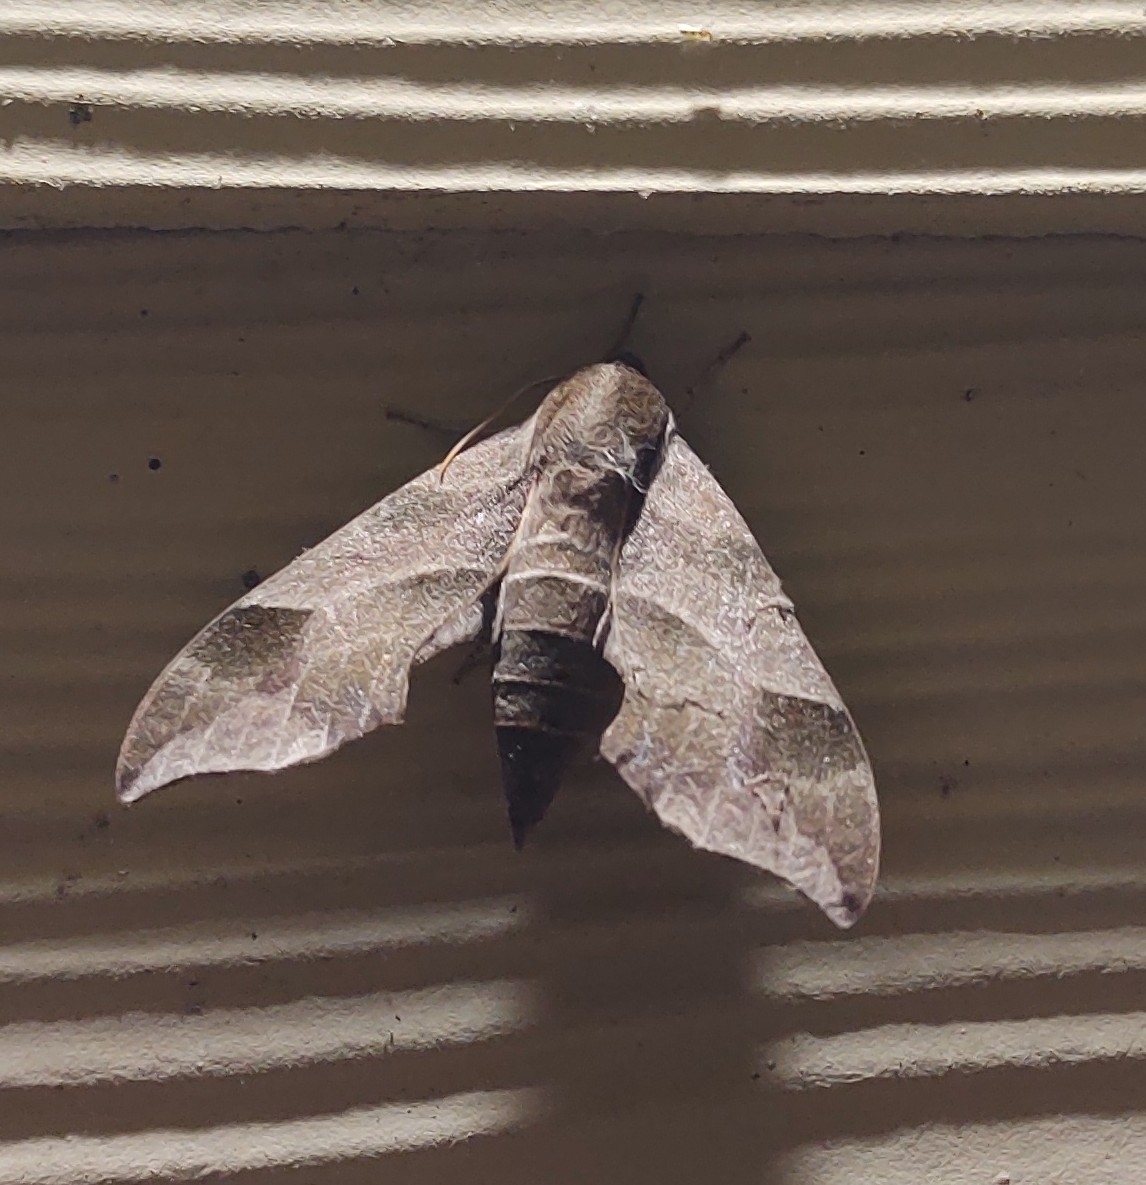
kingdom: Animalia
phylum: Arthropoda
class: Insecta
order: Lepidoptera
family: Sphingidae
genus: Darapsa
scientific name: Darapsa myron
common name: Hog sphinx
